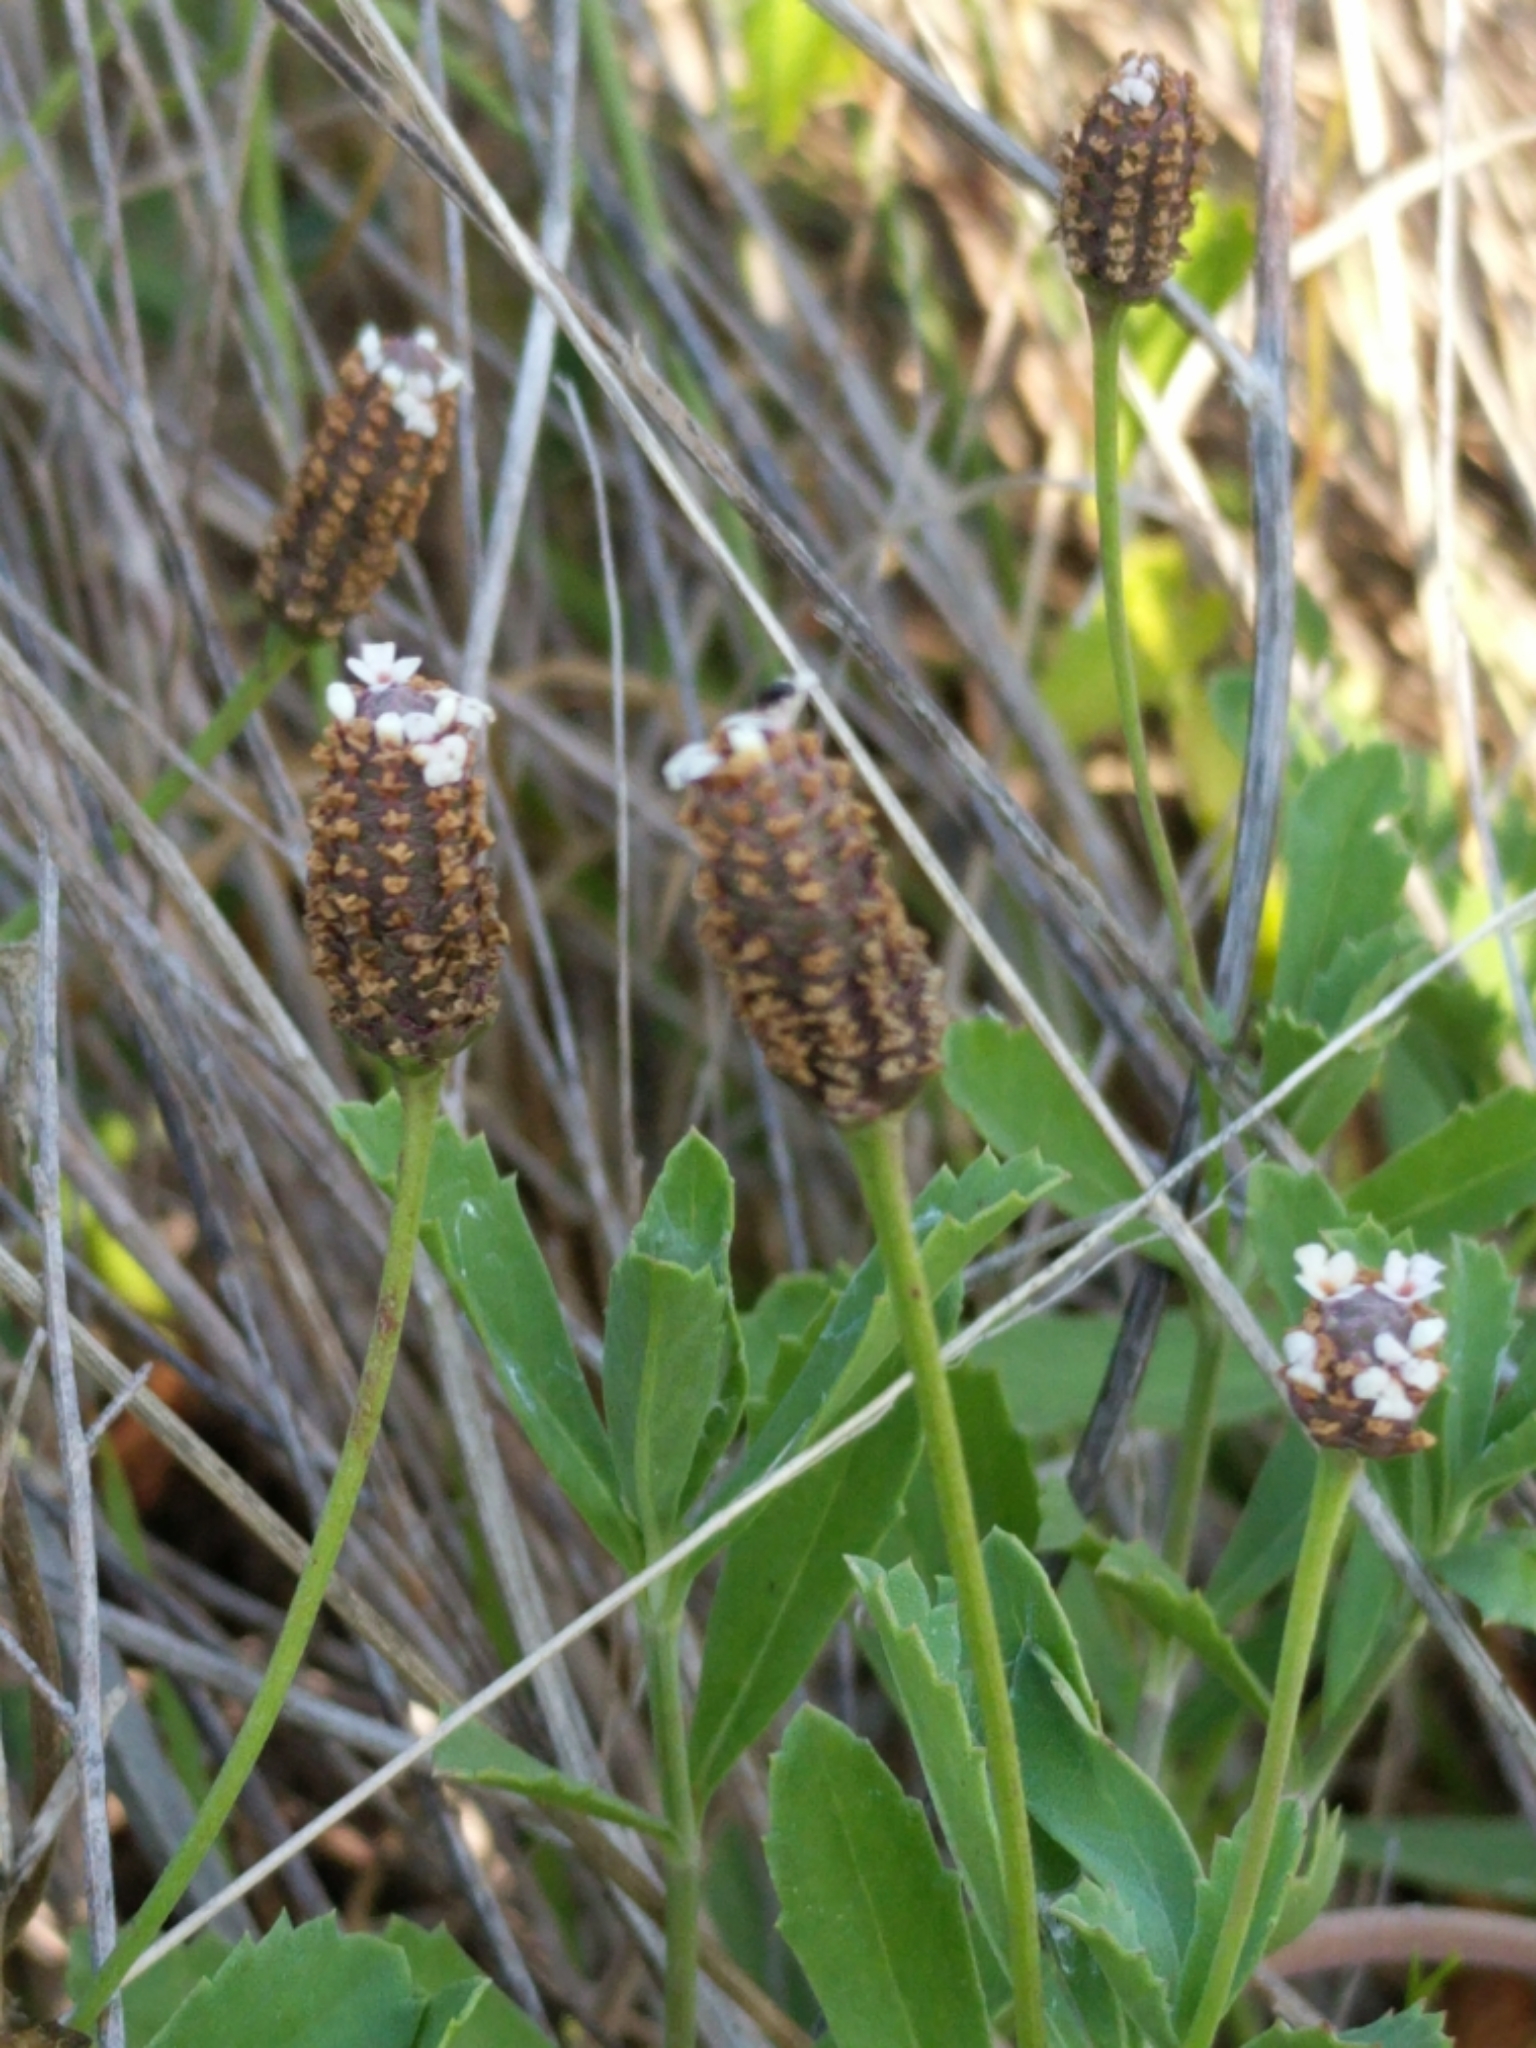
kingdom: Plantae
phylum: Tracheophyta
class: Magnoliopsida
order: Lamiales
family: Verbenaceae
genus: Phyla
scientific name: Phyla nodiflora
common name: Frogfruit
